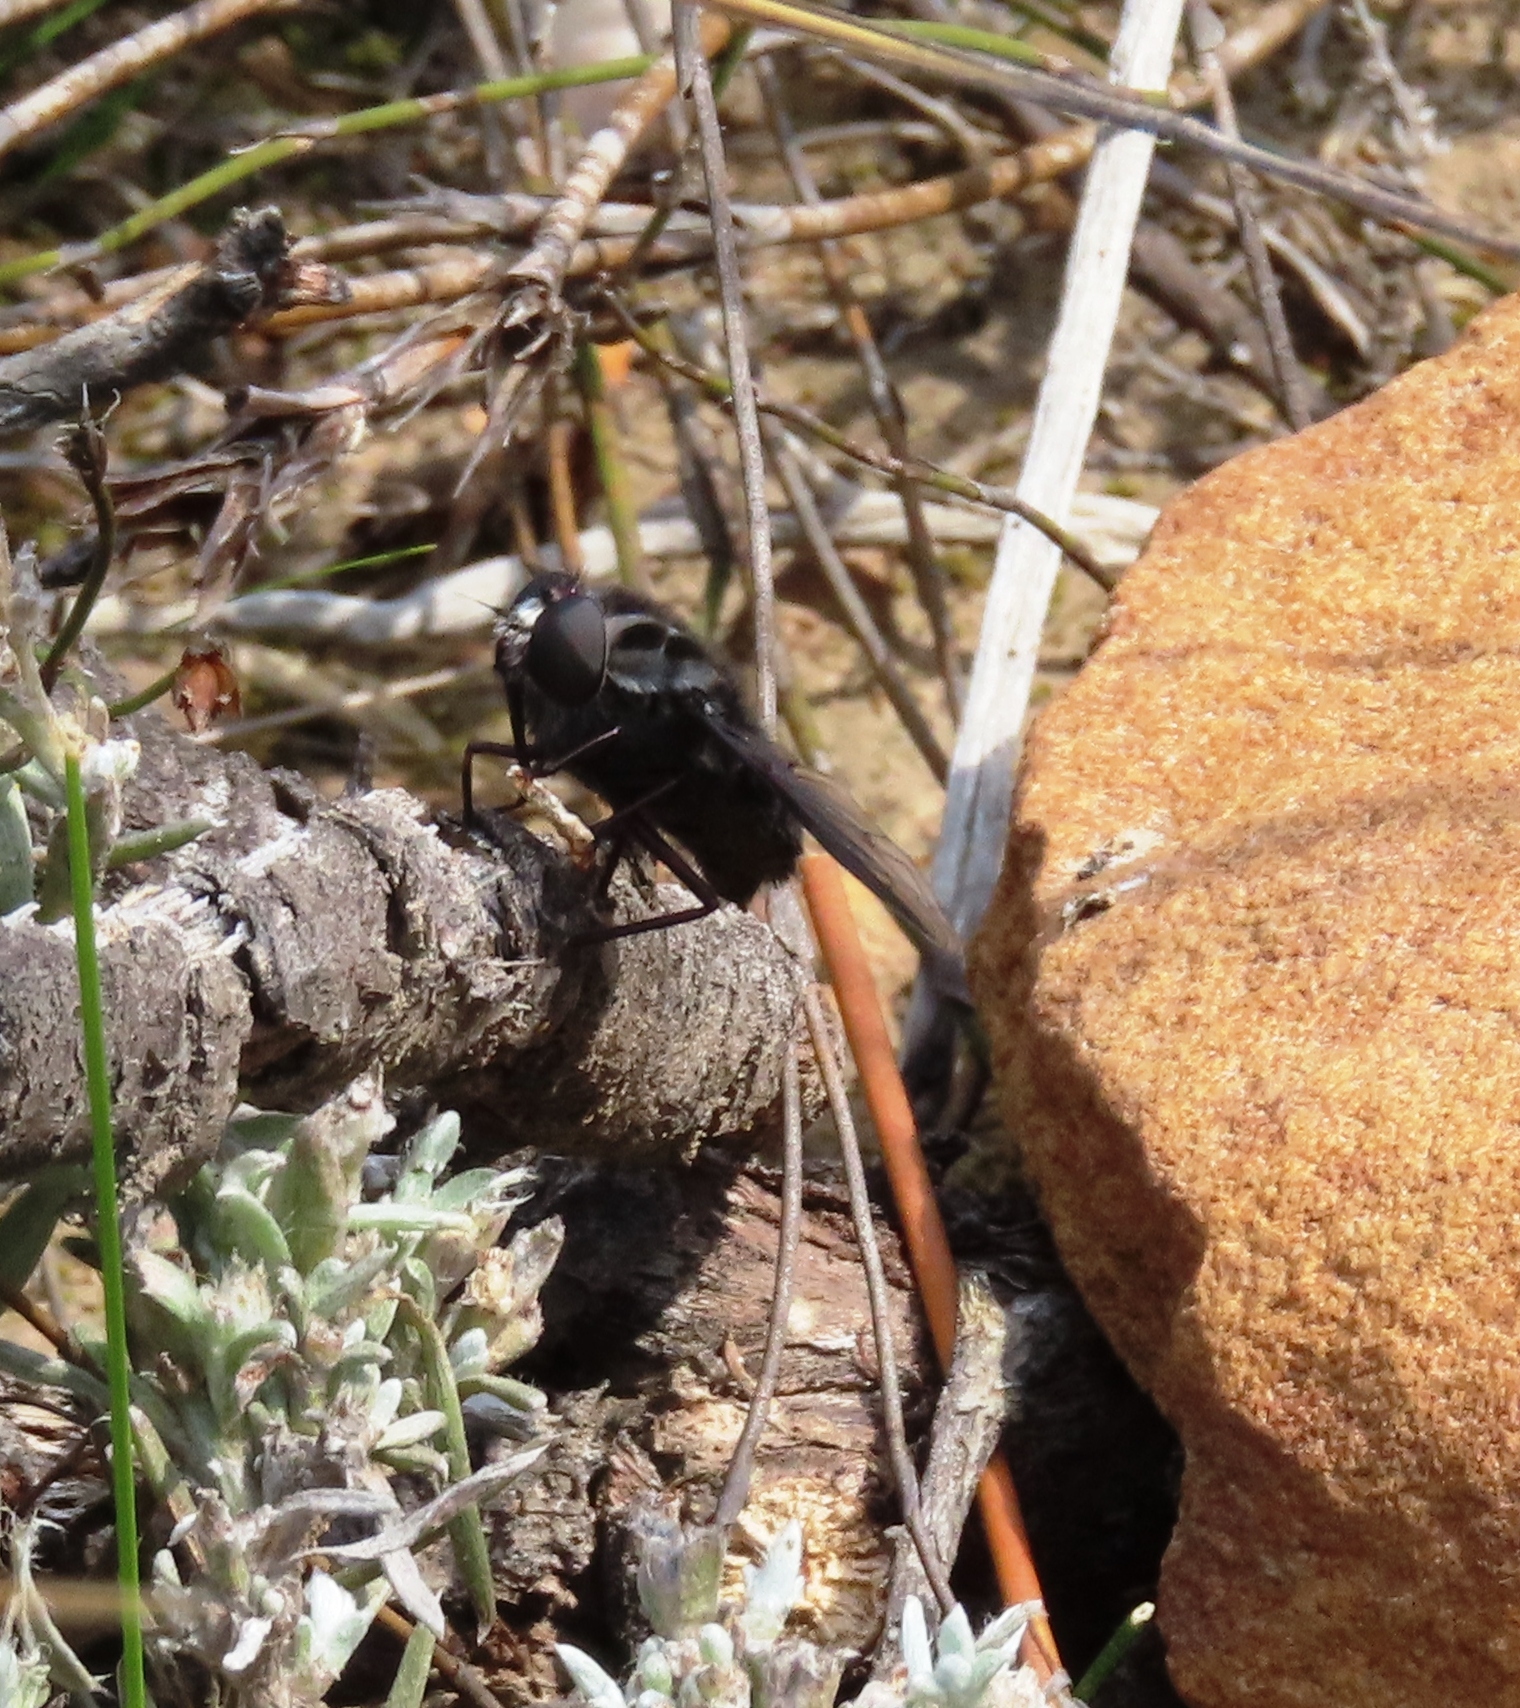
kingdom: Animalia
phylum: Arthropoda
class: Insecta
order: Diptera
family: Nemestrinidae
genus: Prosoeca
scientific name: Prosoeca westermanni
